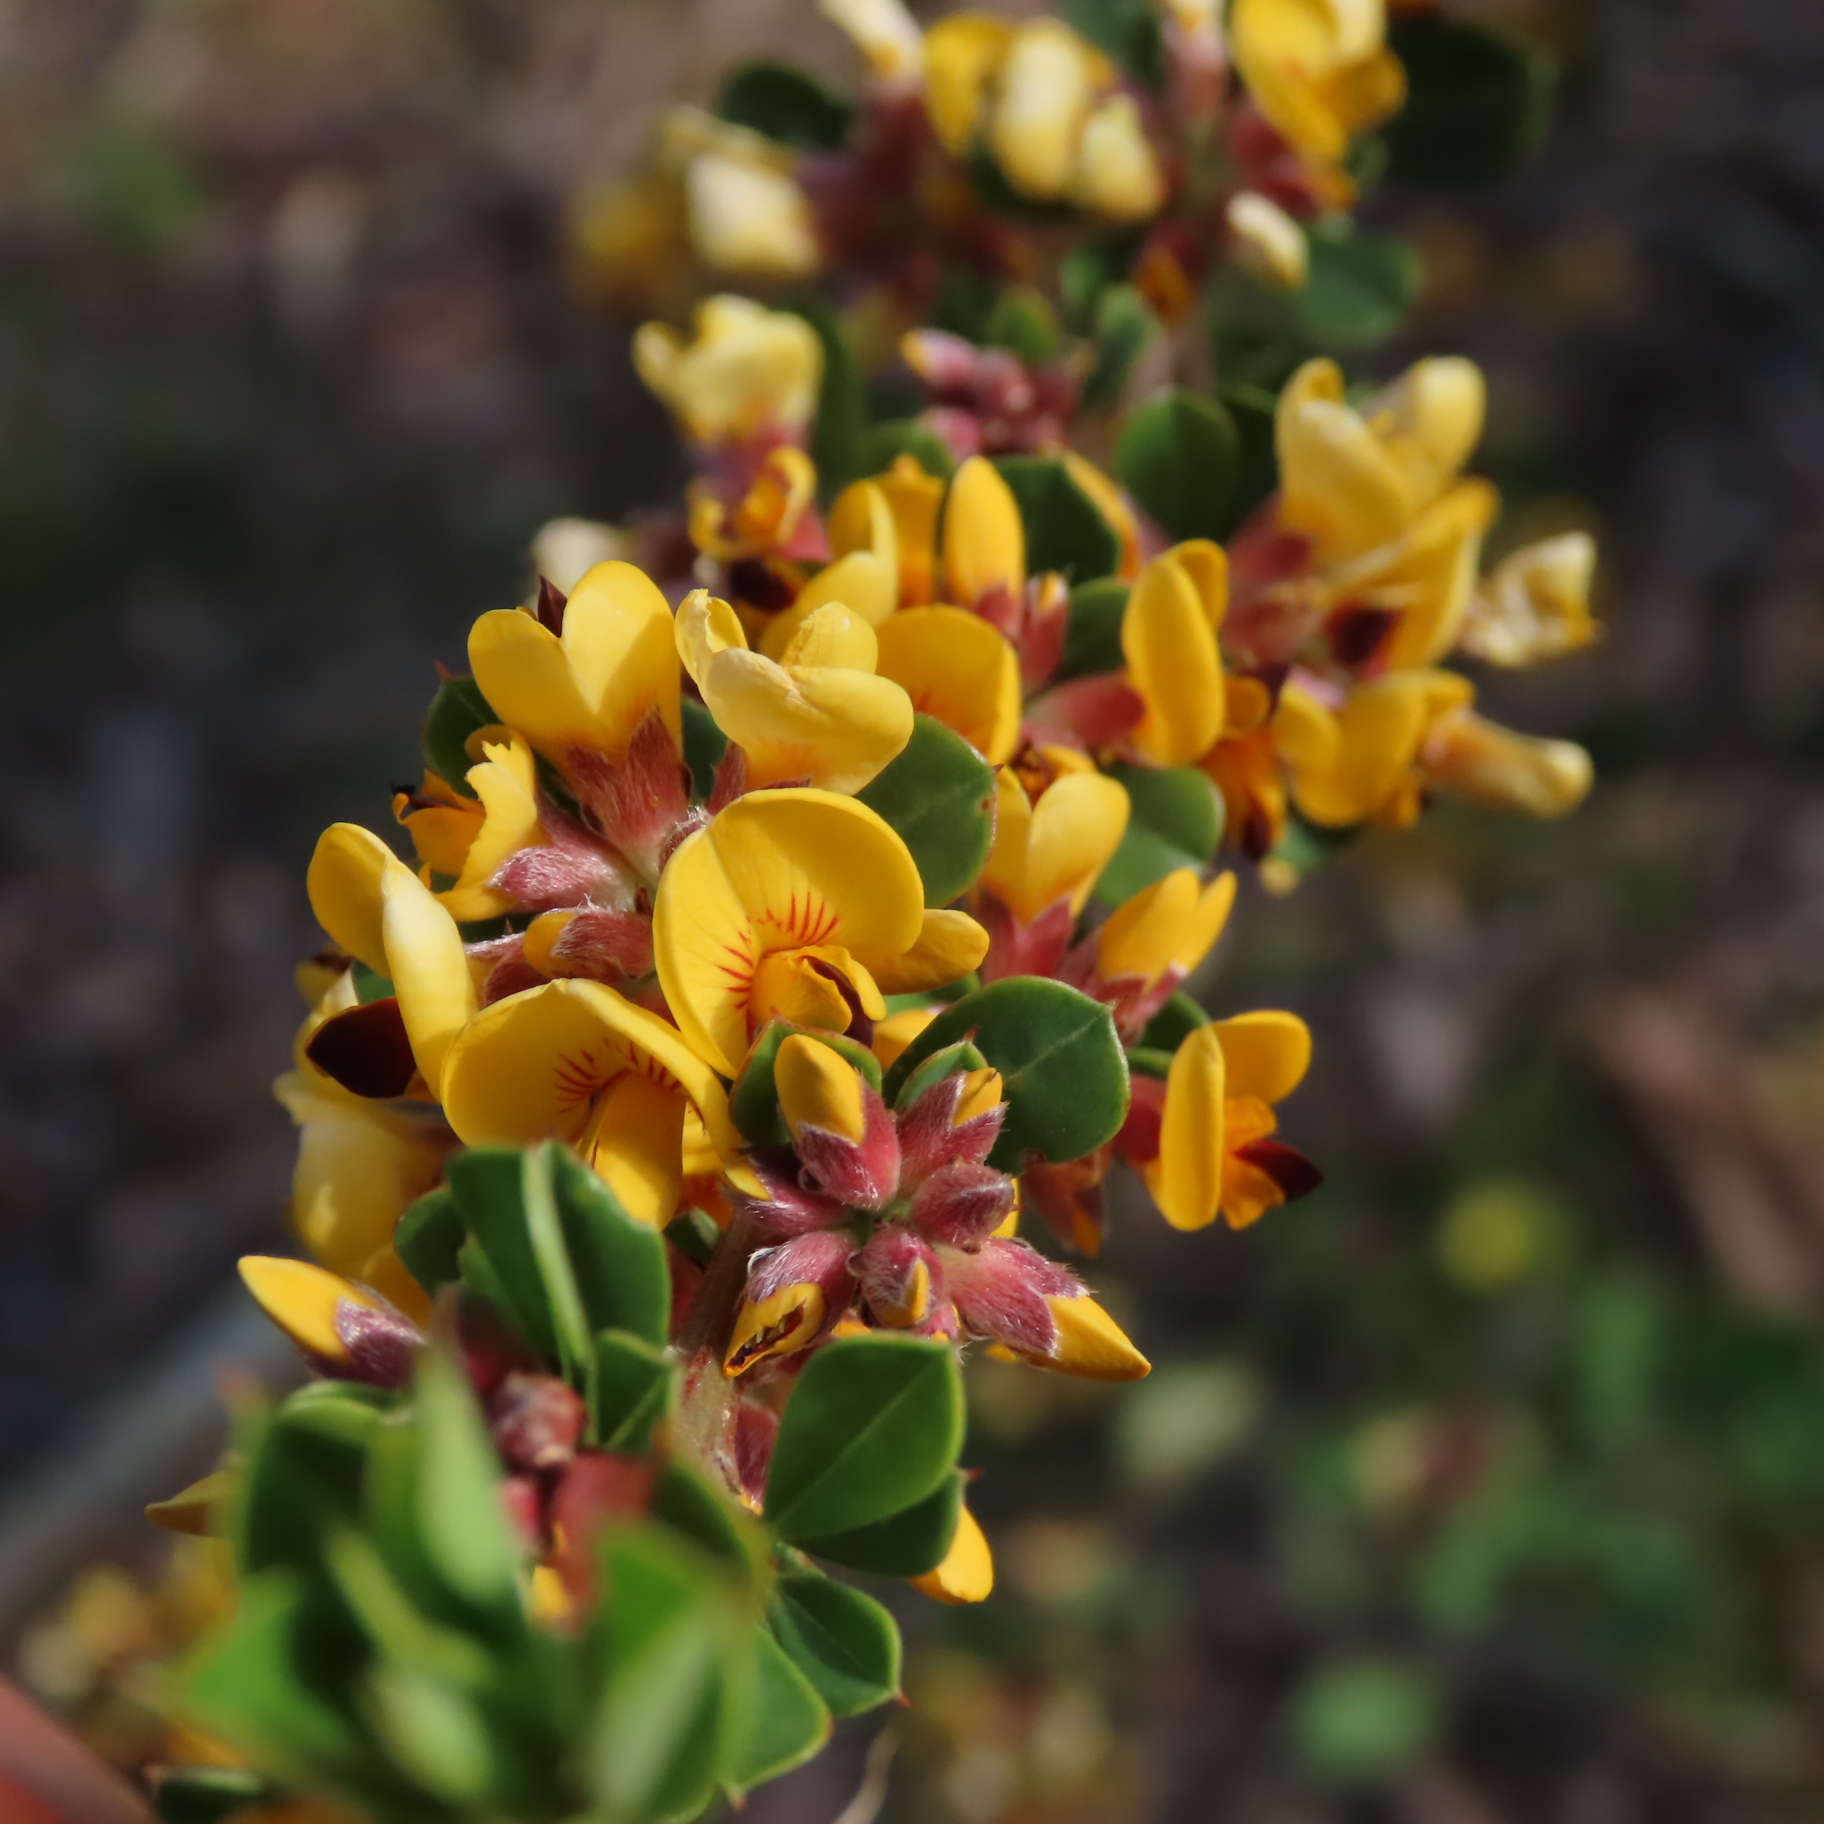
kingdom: Plantae
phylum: Tracheophyta
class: Magnoliopsida
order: Fabales
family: Fabaceae
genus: Pultenaea
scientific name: Pultenaea daphnoides
